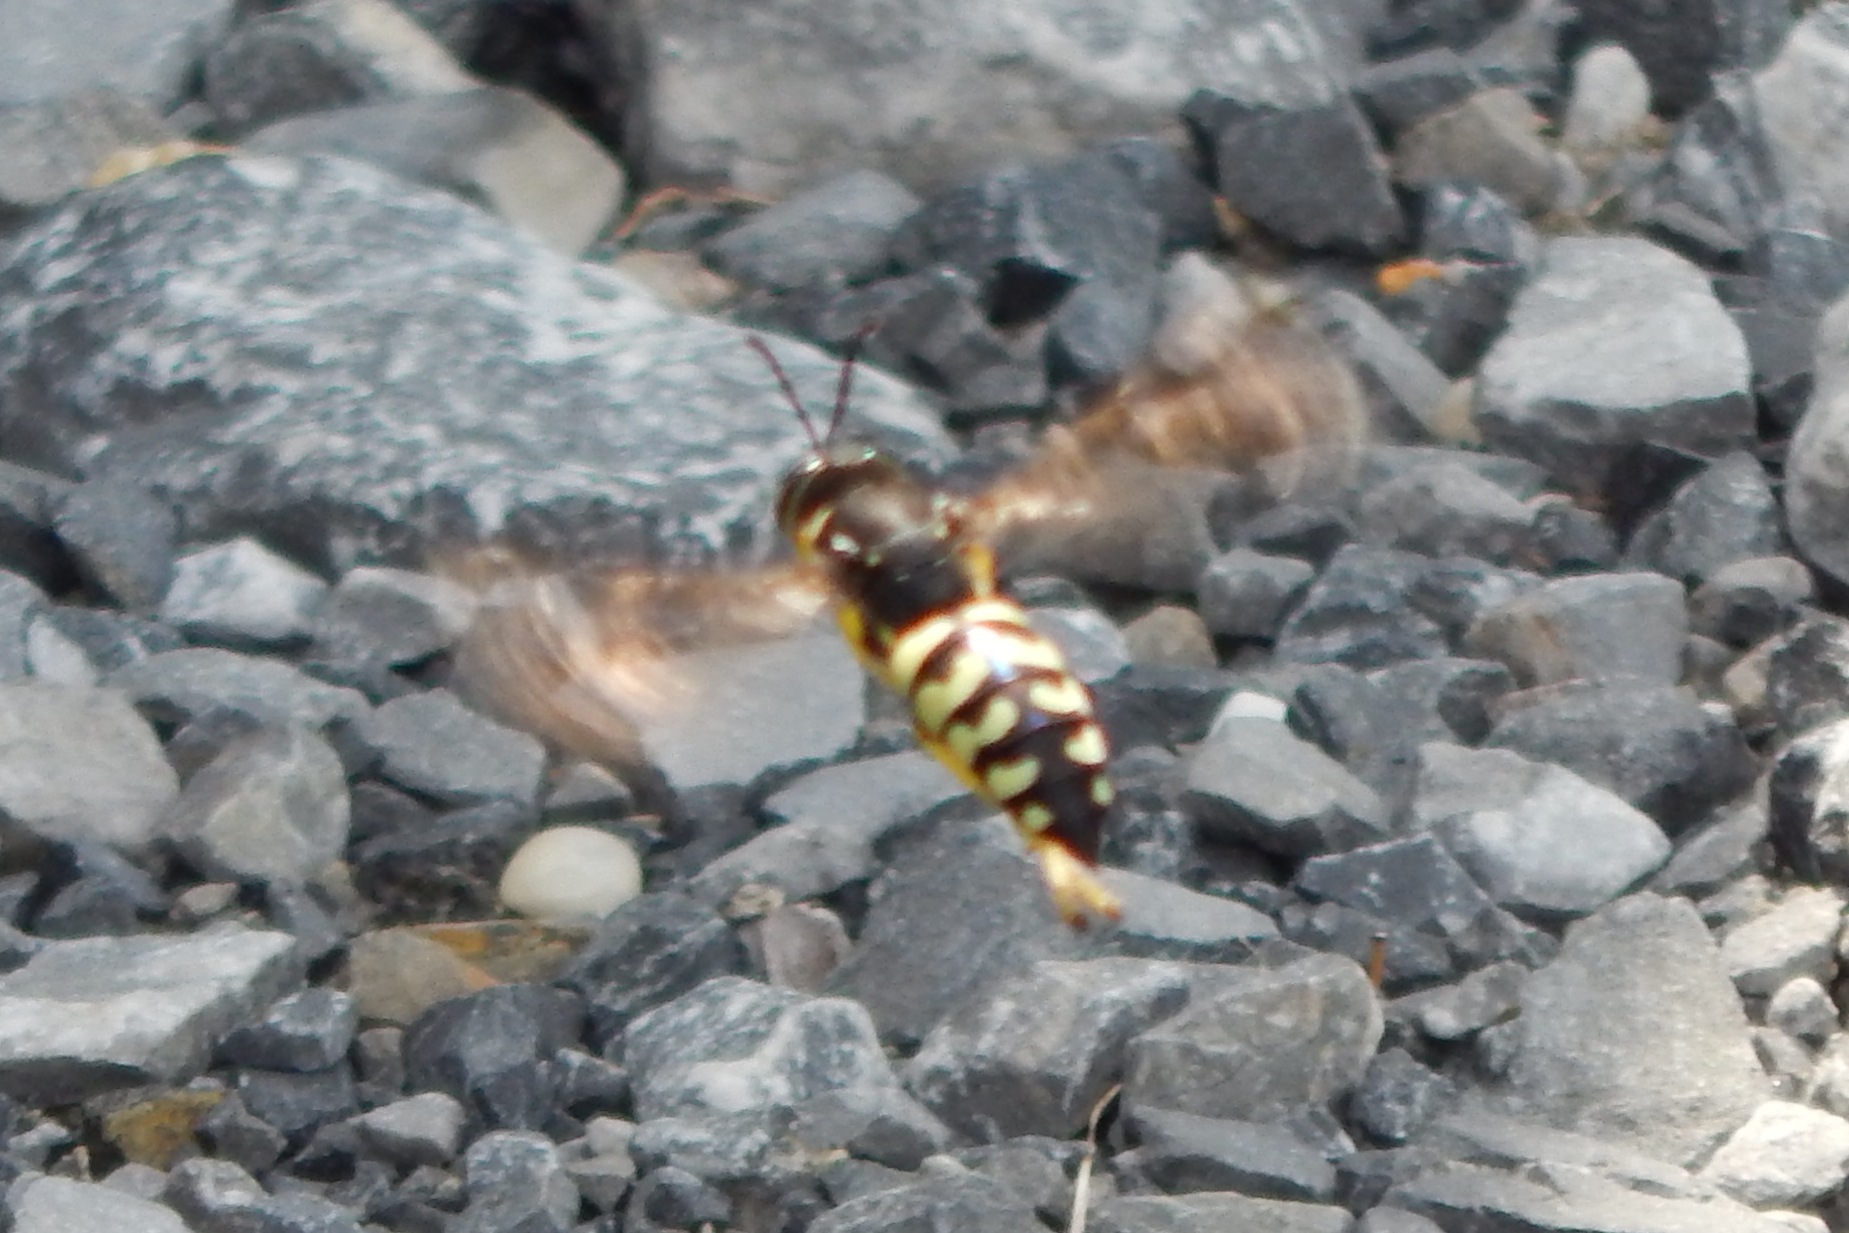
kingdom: Animalia
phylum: Arthropoda
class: Insecta
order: Hymenoptera
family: Crabronidae
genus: Stictia
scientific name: Stictia carolina
